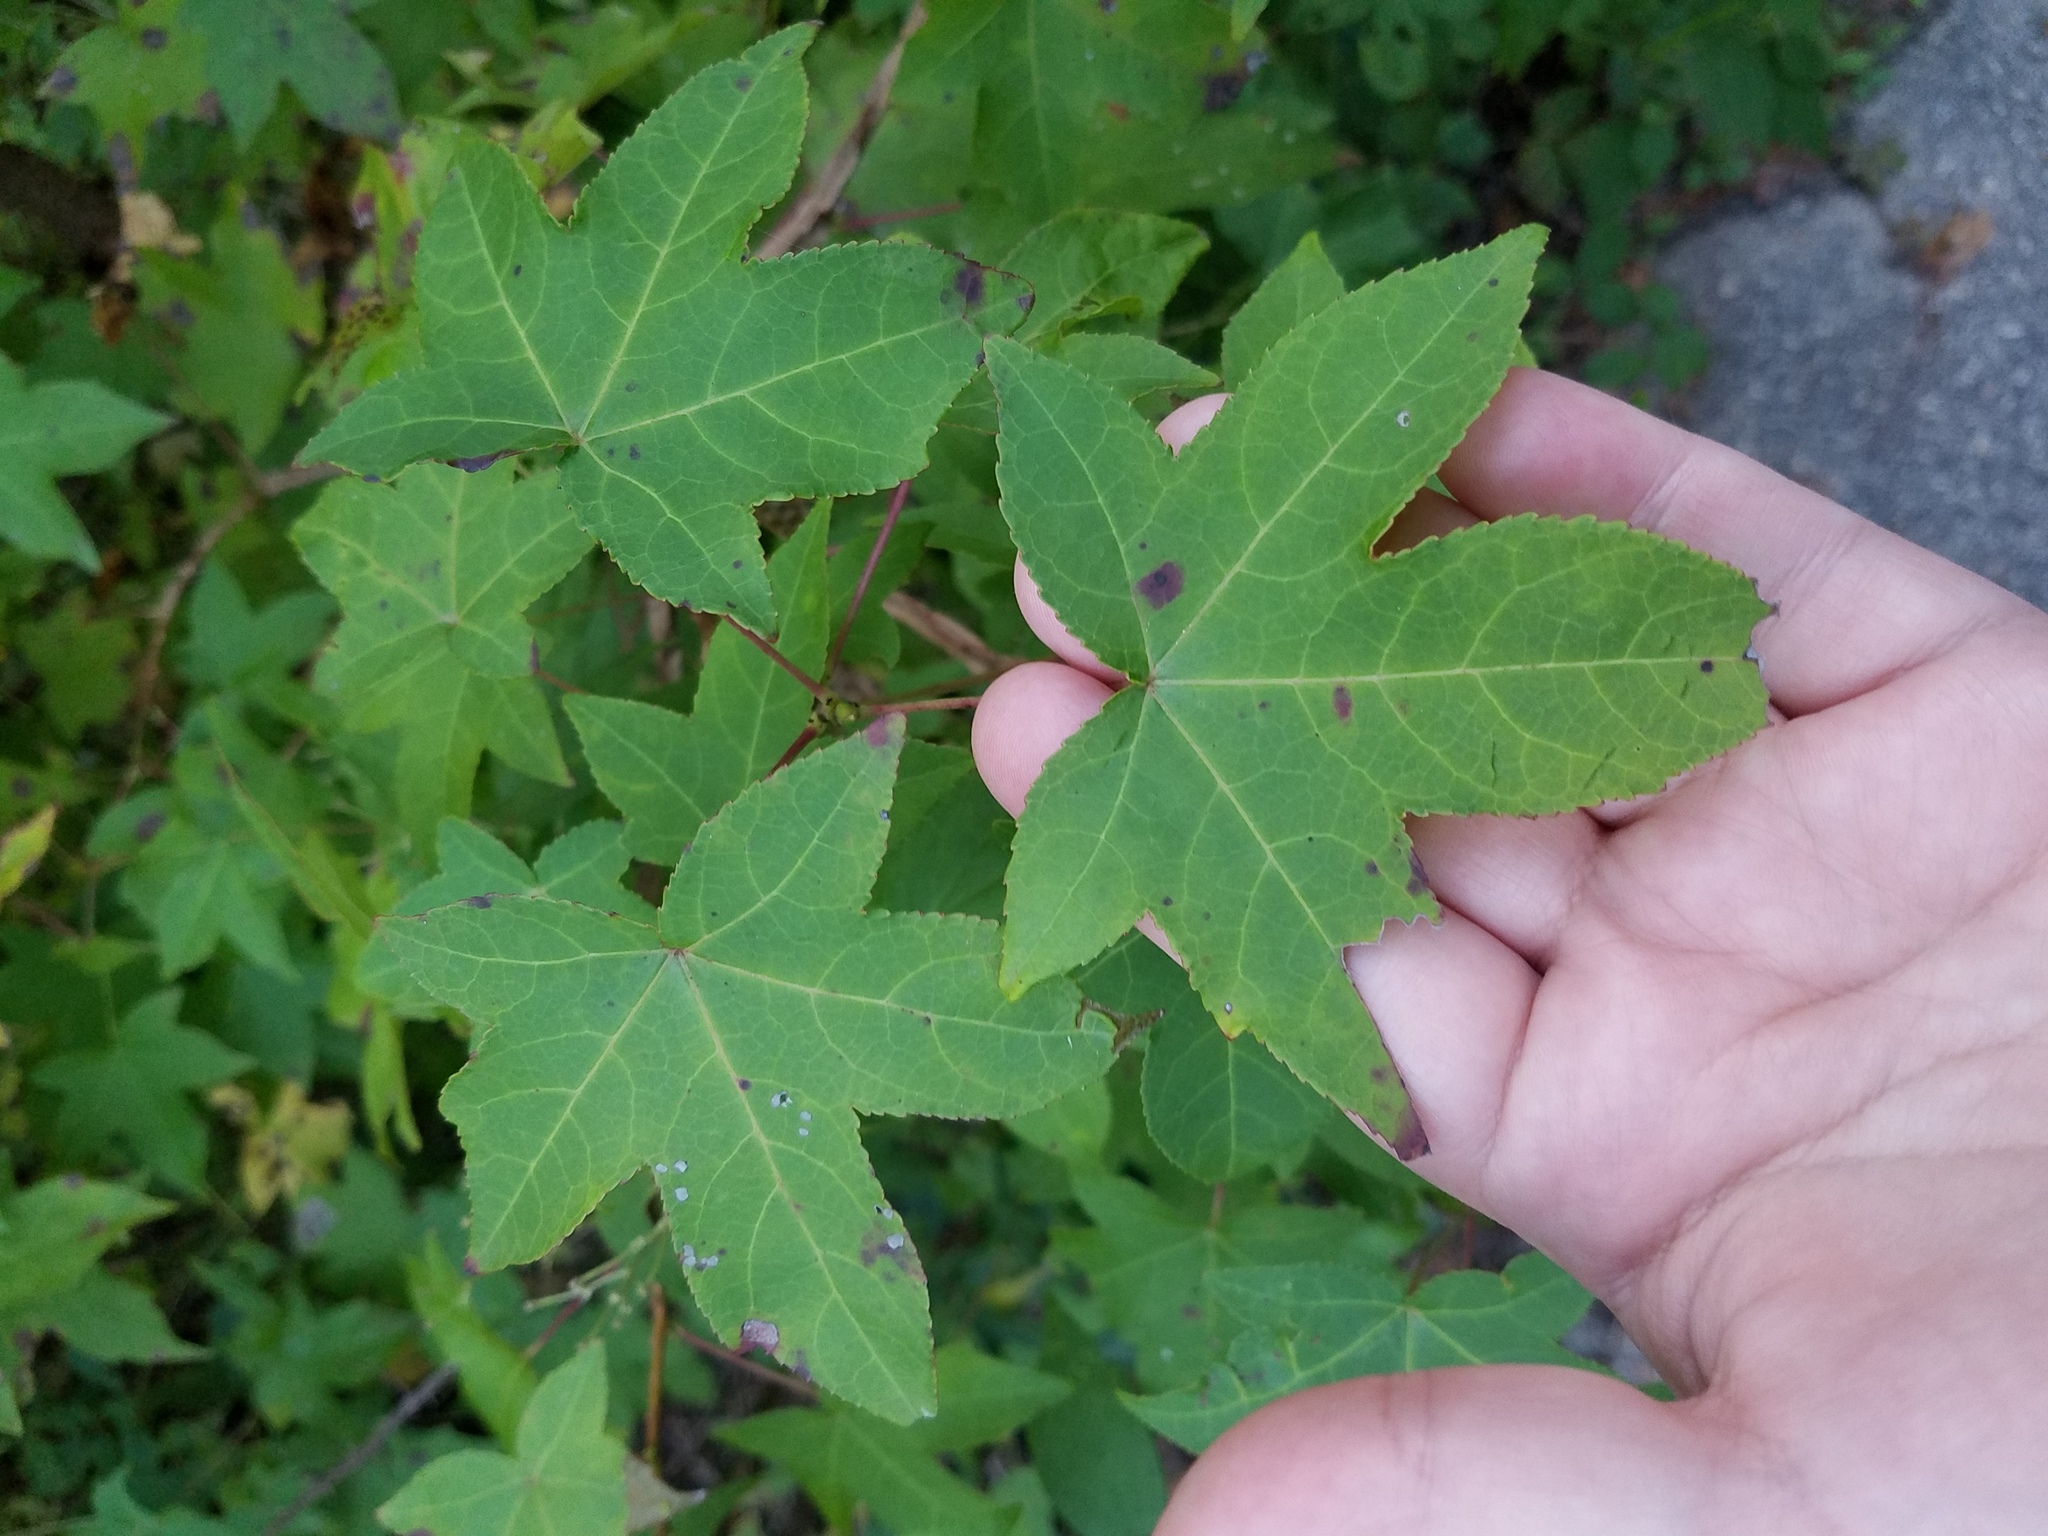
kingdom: Plantae
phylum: Tracheophyta
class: Magnoliopsida
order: Saxifragales
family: Altingiaceae
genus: Liquidambar
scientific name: Liquidambar styraciflua
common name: Sweet gum
